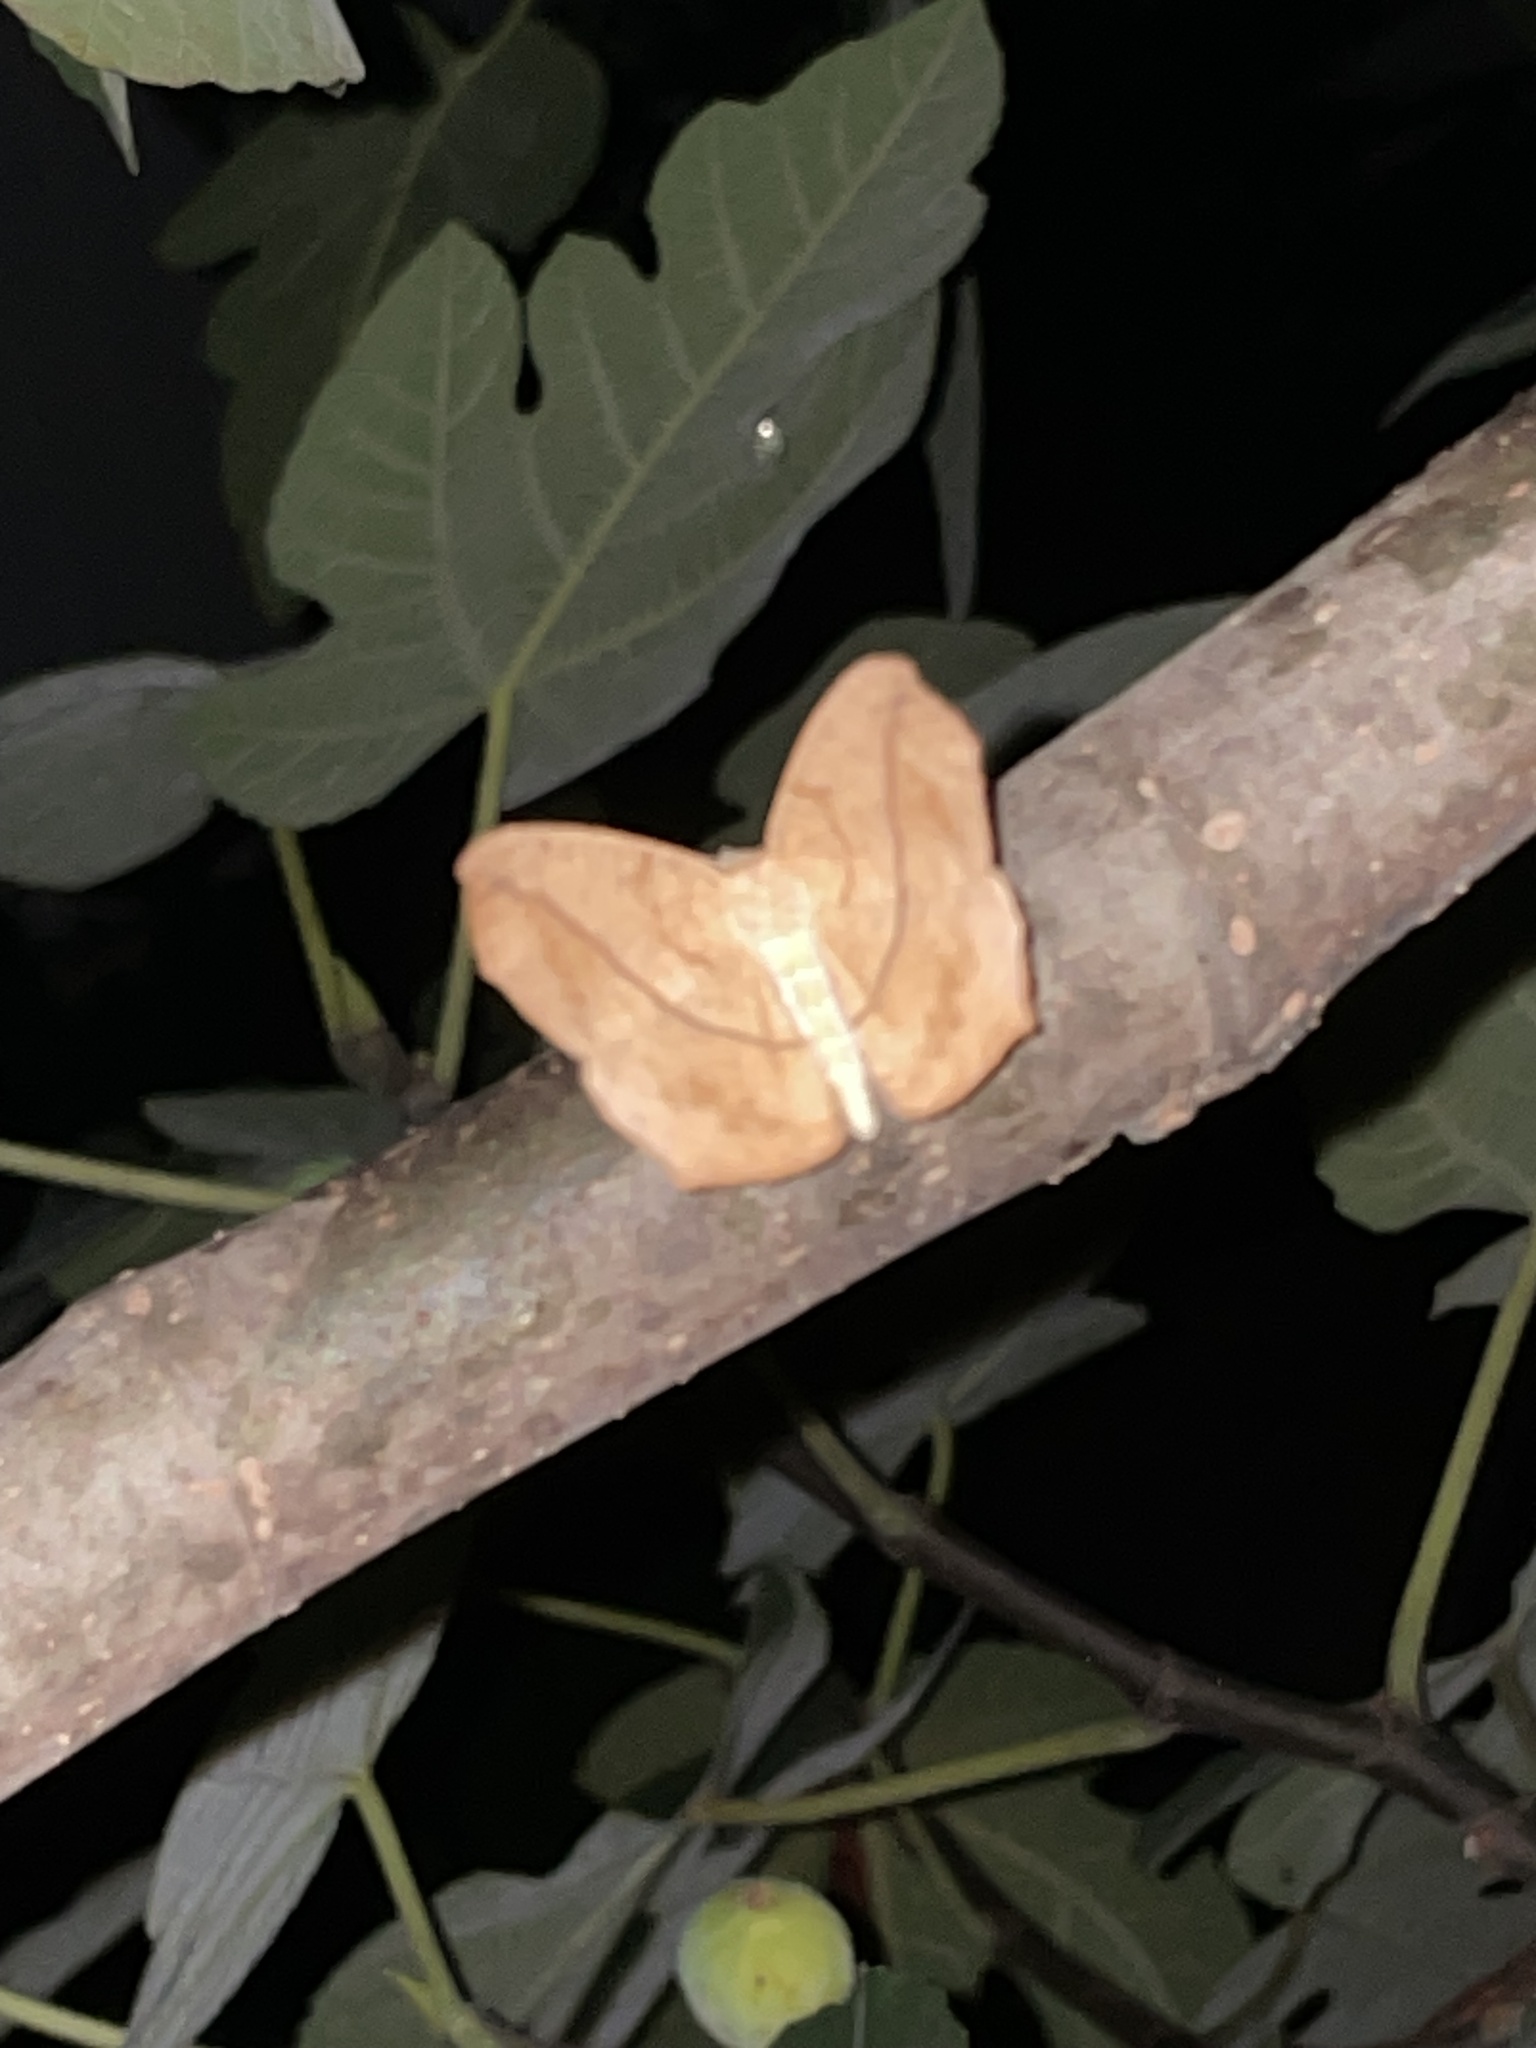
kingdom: Animalia
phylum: Arthropoda
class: Insecta
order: Lepidoptera
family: Geometridae
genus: Prochoerodes
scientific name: Prochoerodes lineola
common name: Large maple spanworm
